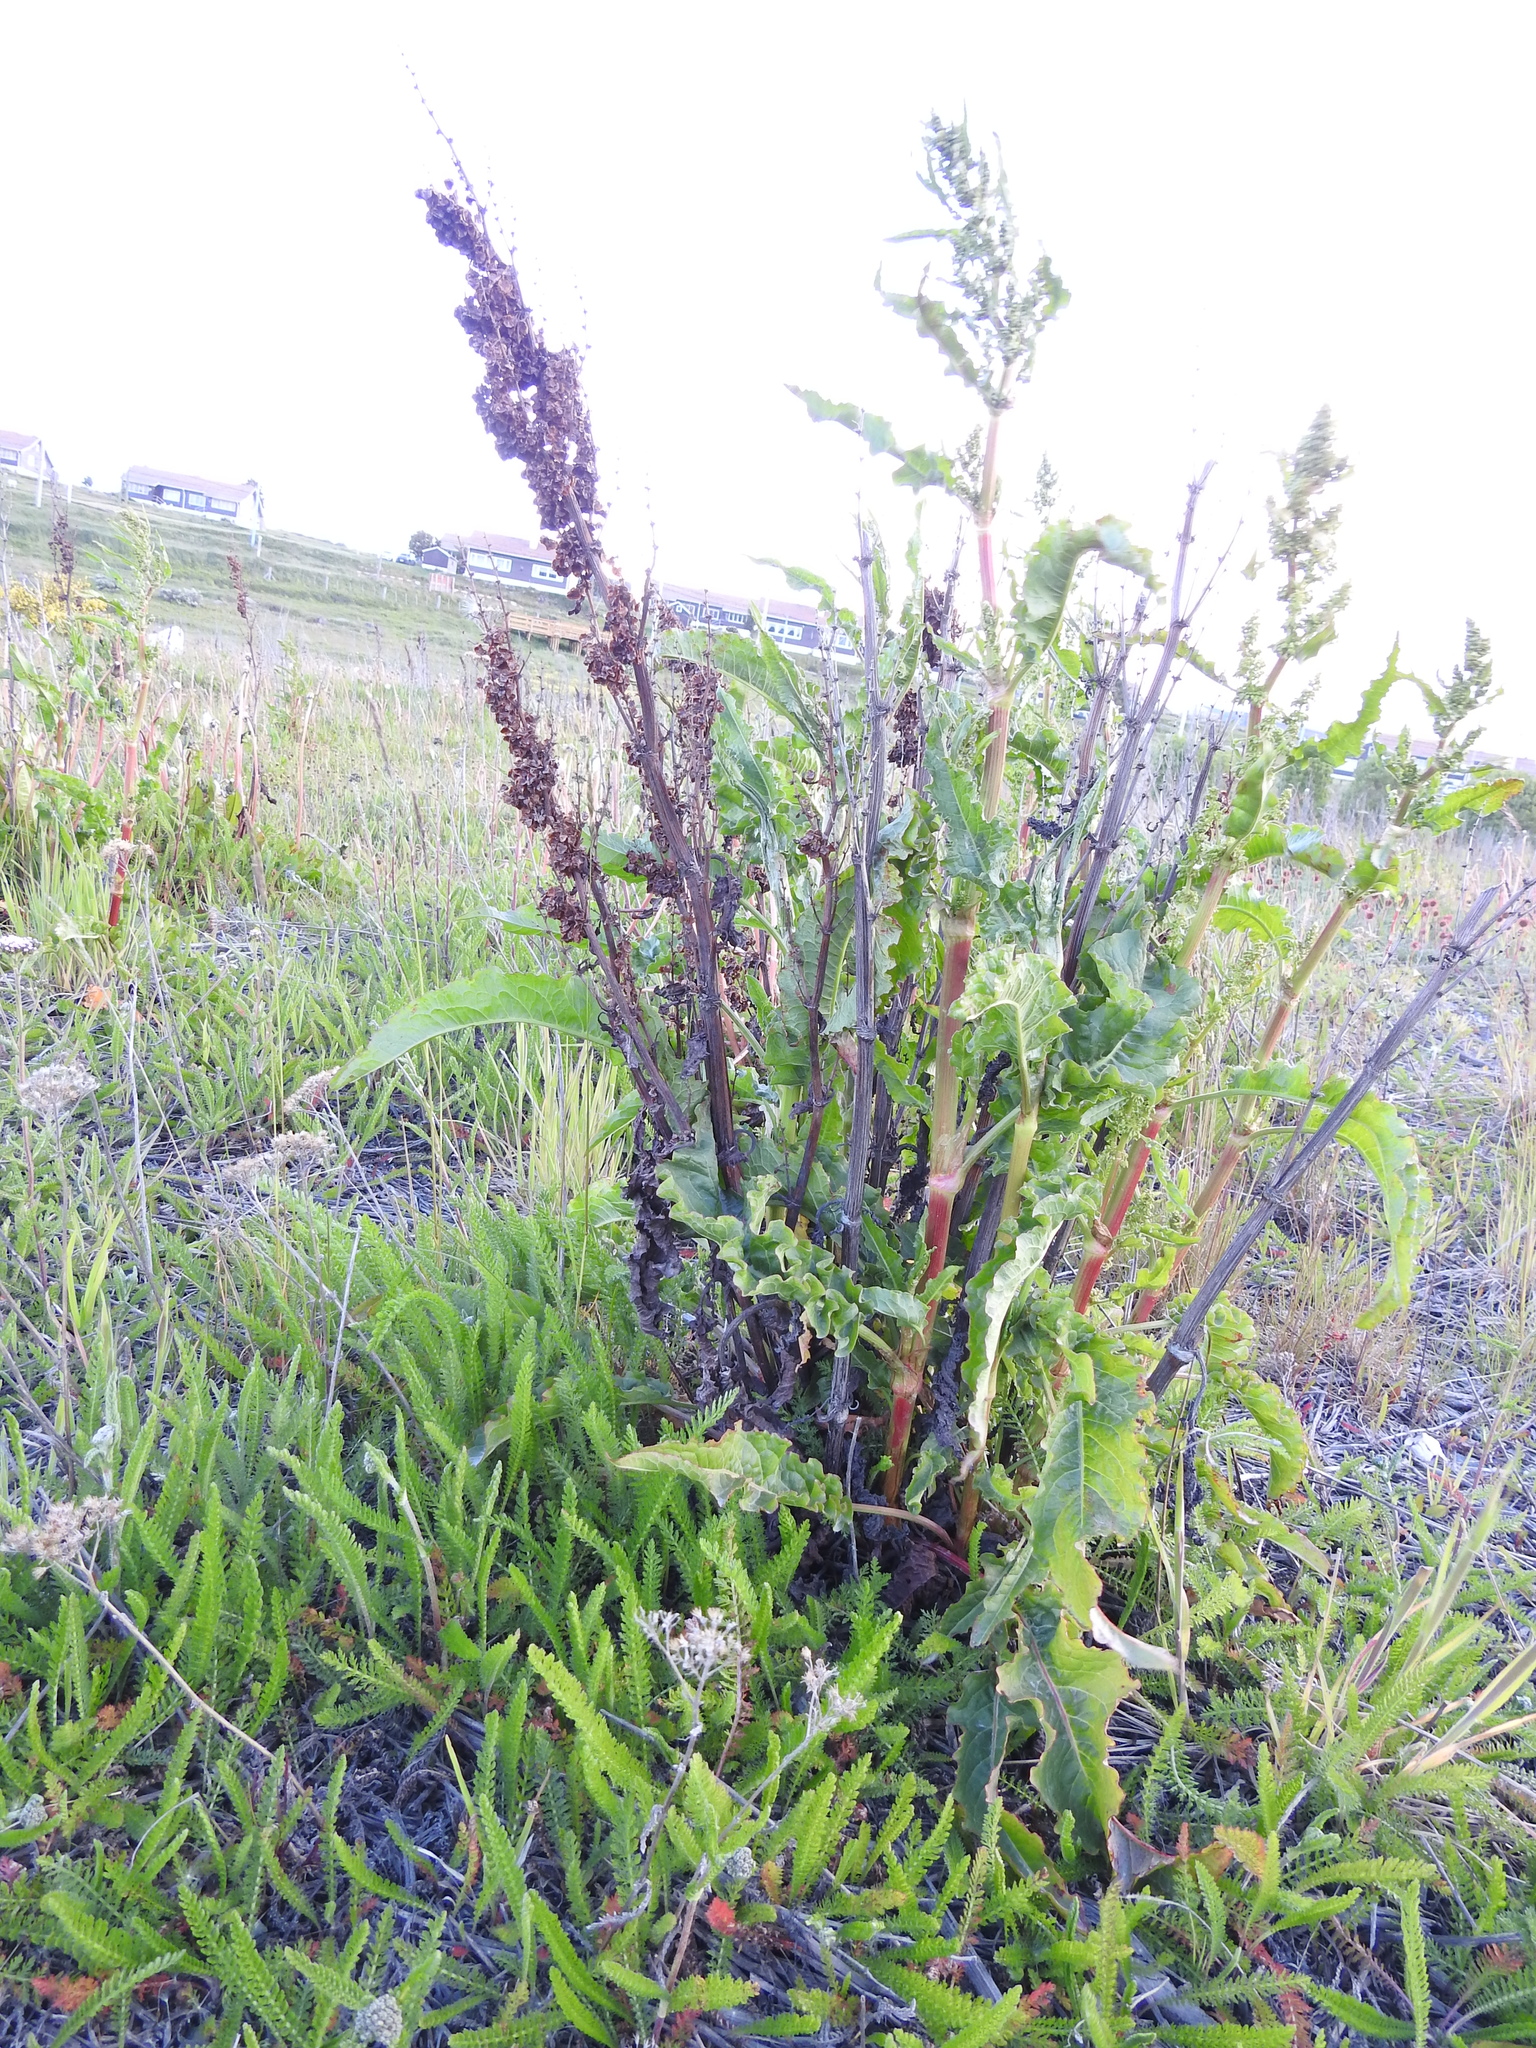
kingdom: Plantae
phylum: Tracheophyta
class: Magnoliopsida
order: Caryophyllales
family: Polygonaceae
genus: Rumex
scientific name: Rumex crispus
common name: Curled dock
